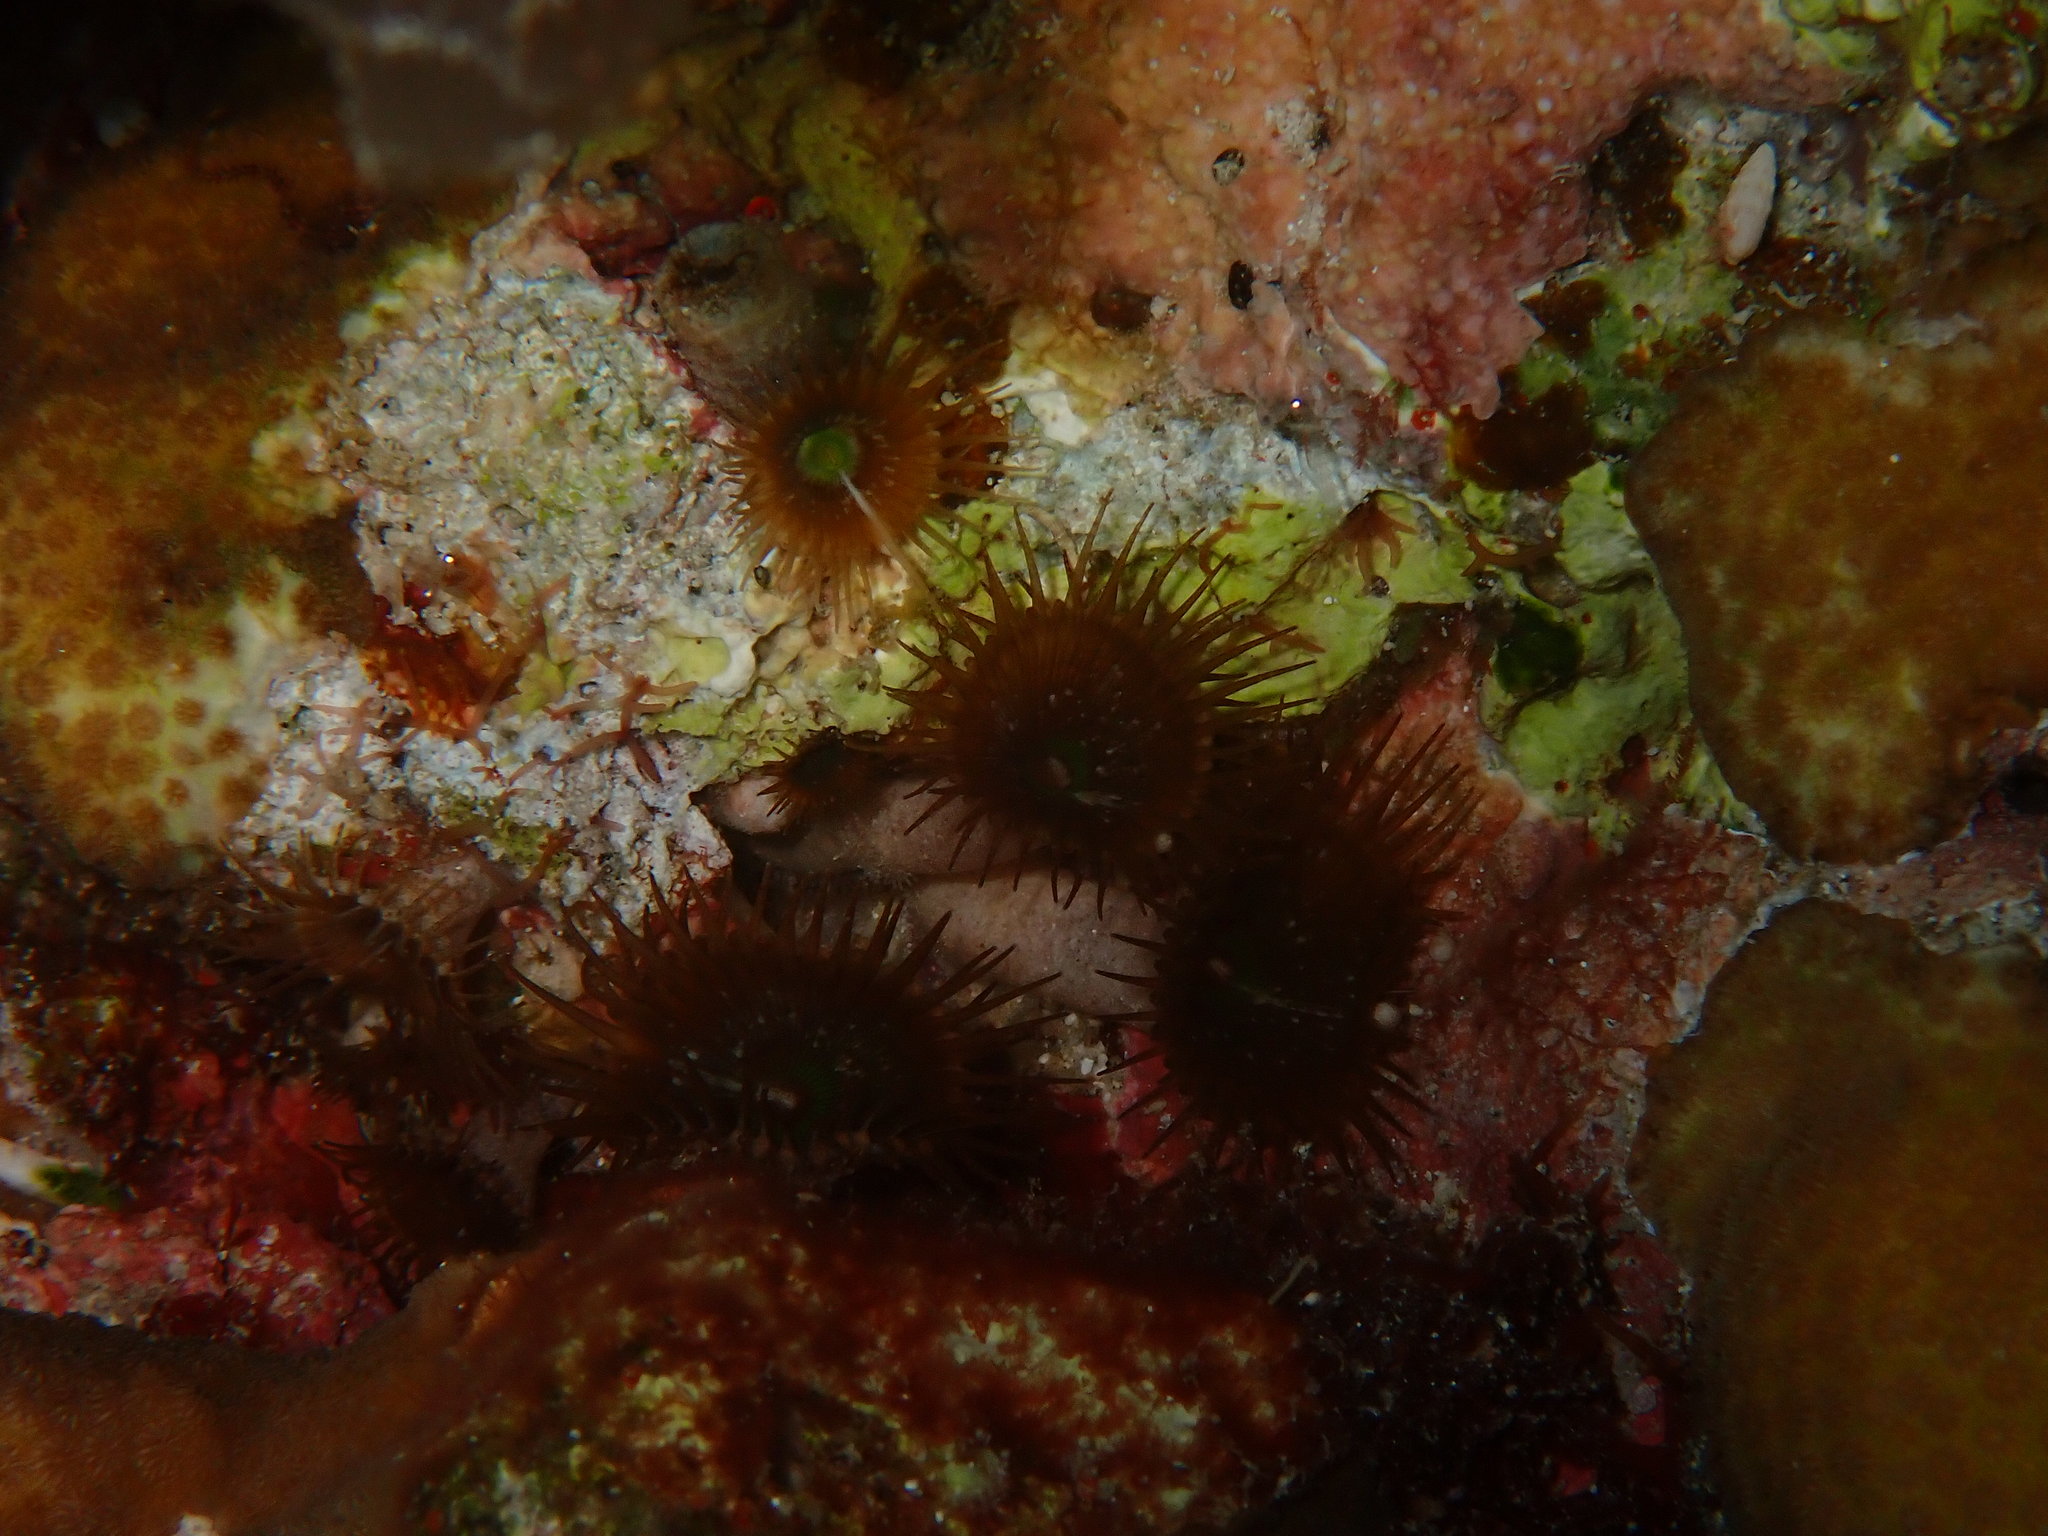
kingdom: Animalia
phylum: Cnidaria
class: Anthozoa
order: Zoantharia
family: Sphenopidae
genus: Palythoa
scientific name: Palythoa mutuki
